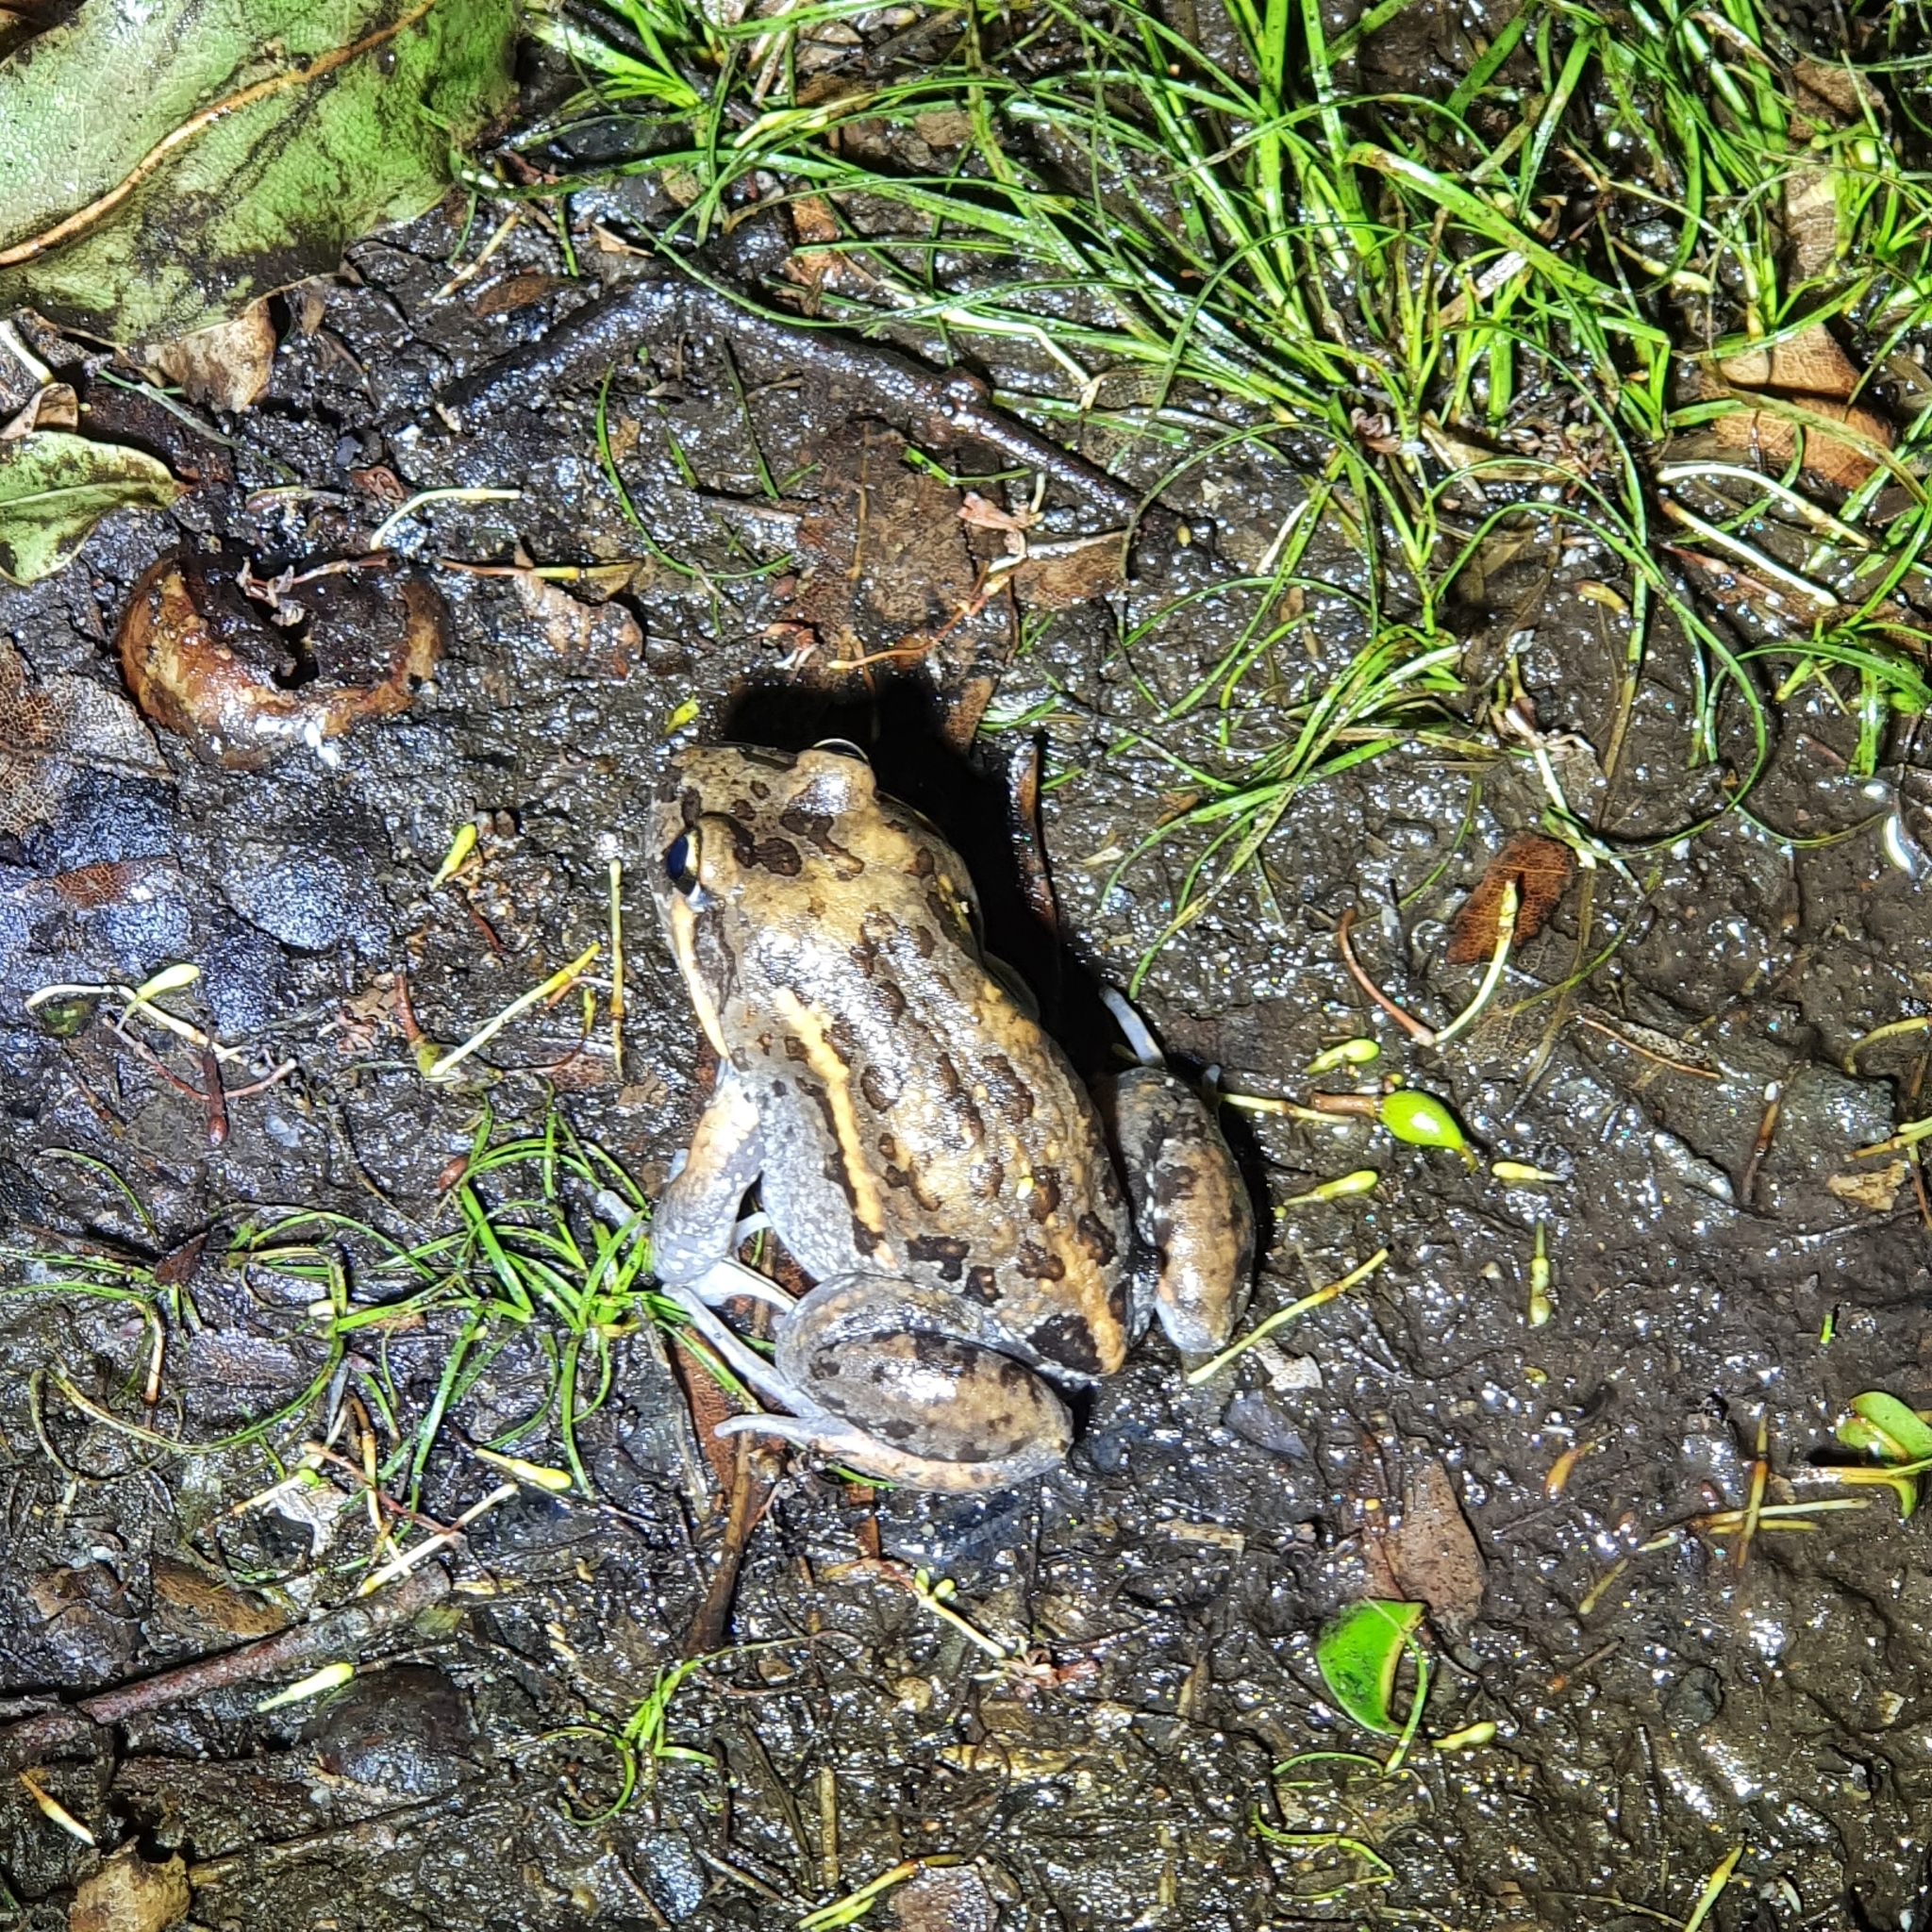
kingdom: Animalia
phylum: Chordata
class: Amphibia
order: Anura
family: Limnodynastidae
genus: Limnodynastes
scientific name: Limnodynastes salmini
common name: Salmon-striped frog
